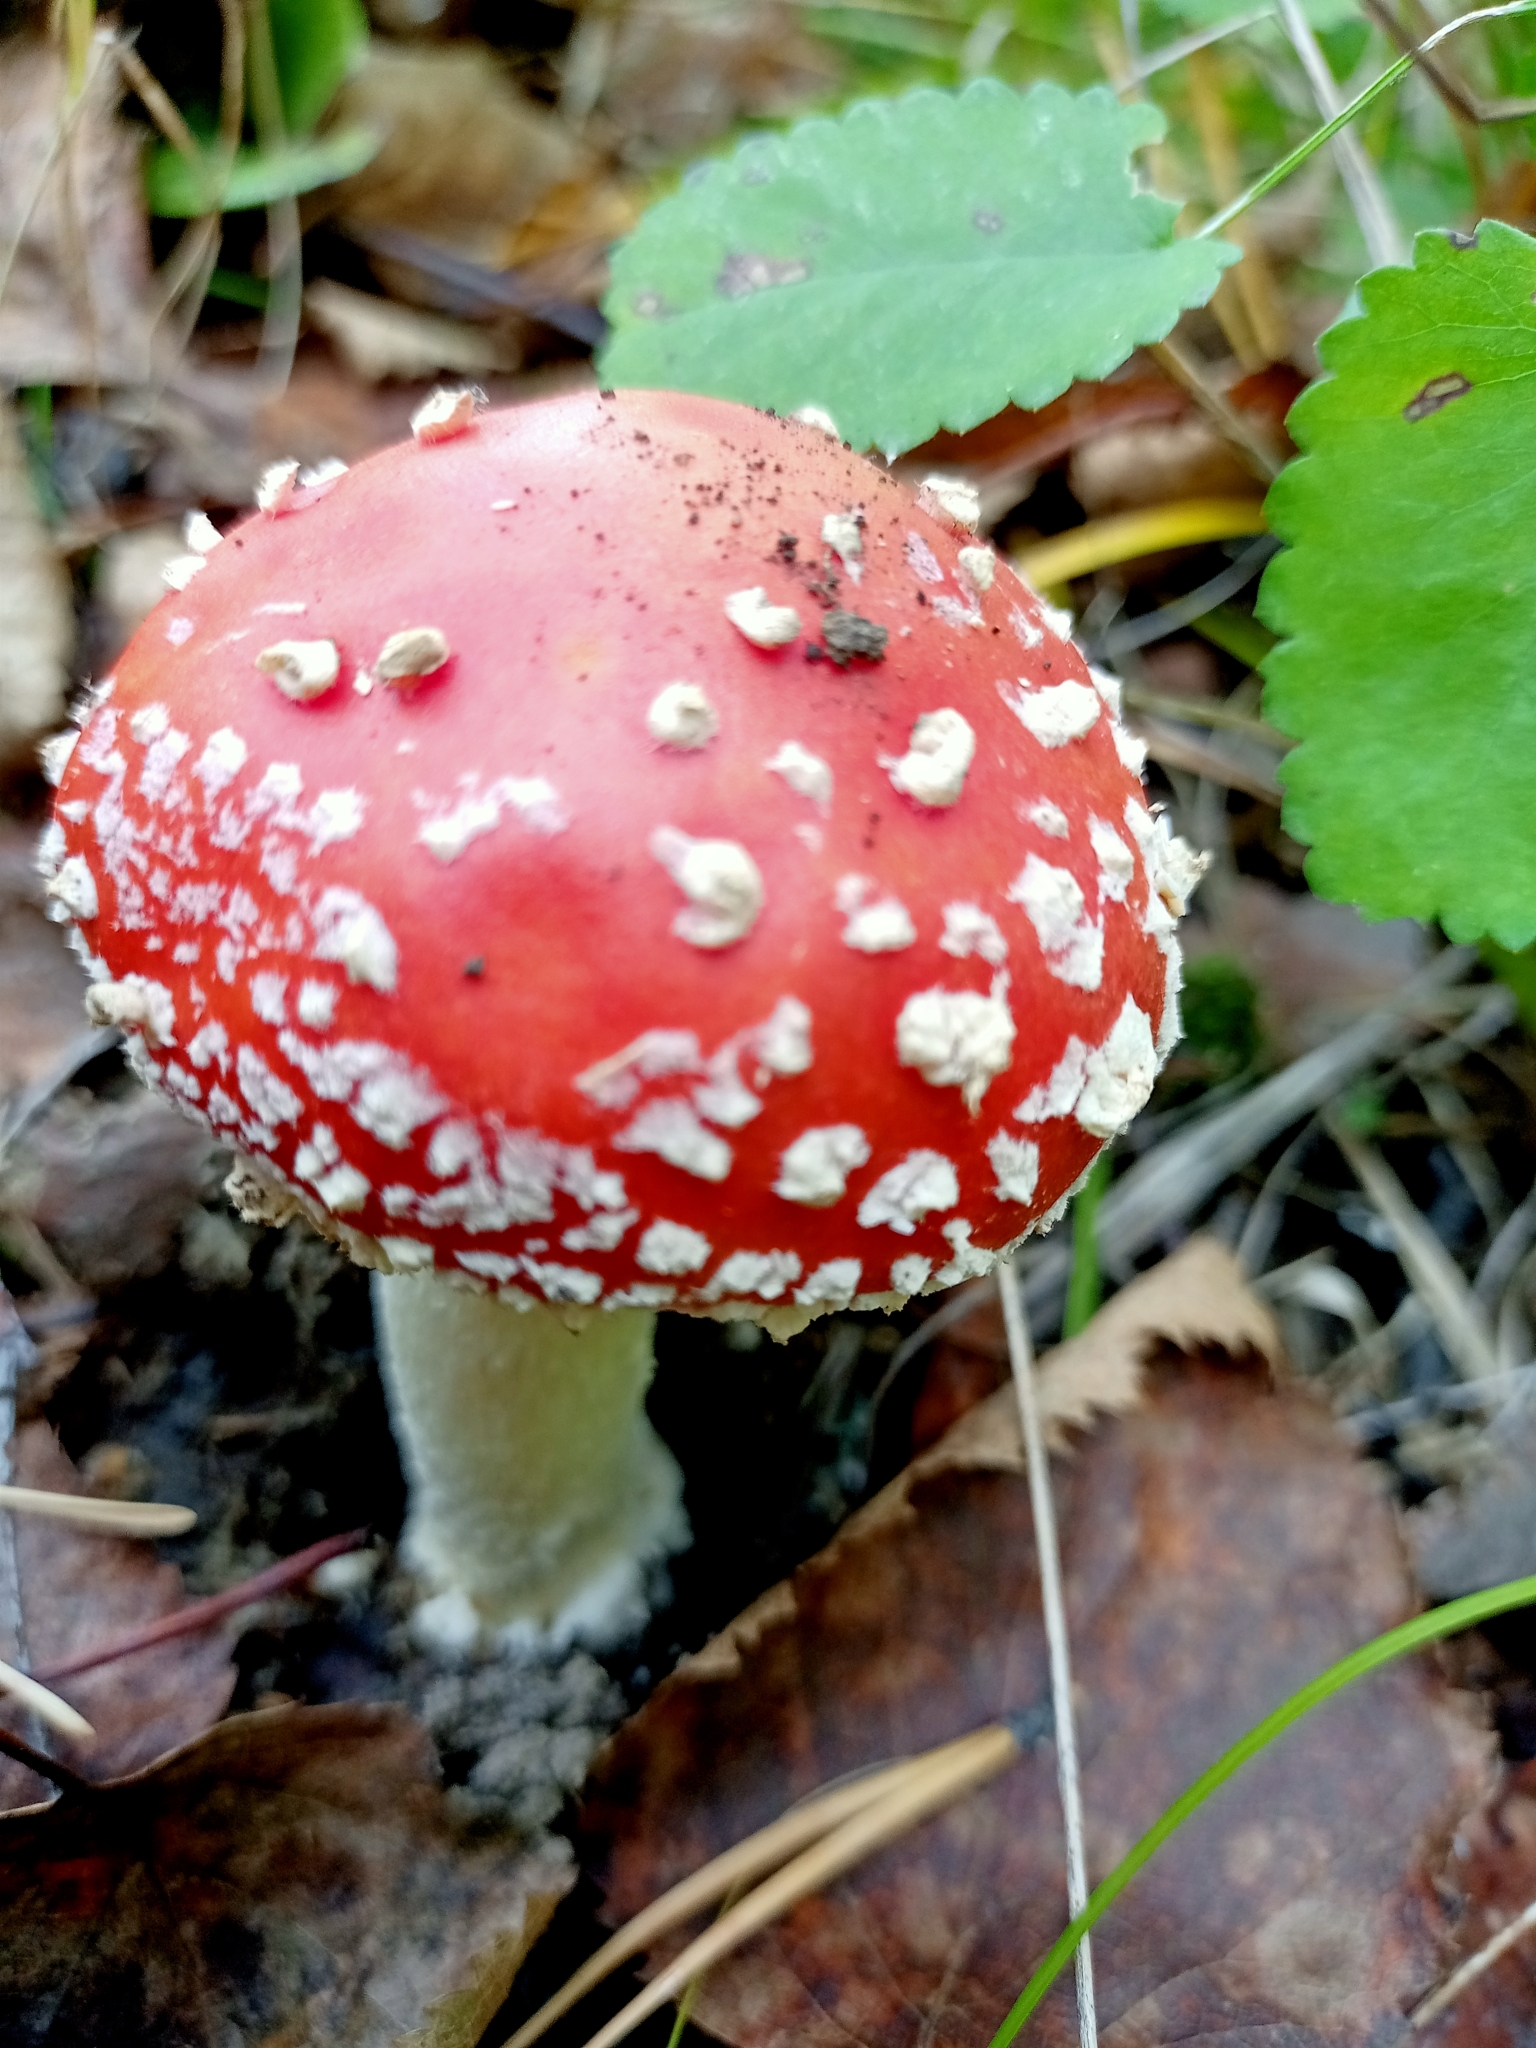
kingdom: Fungi
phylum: Basidiomycota
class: Agaricomycetes
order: Agaricales
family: Amanitaceae
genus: Amanita
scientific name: Amanita muscaria
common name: Fly agaric
